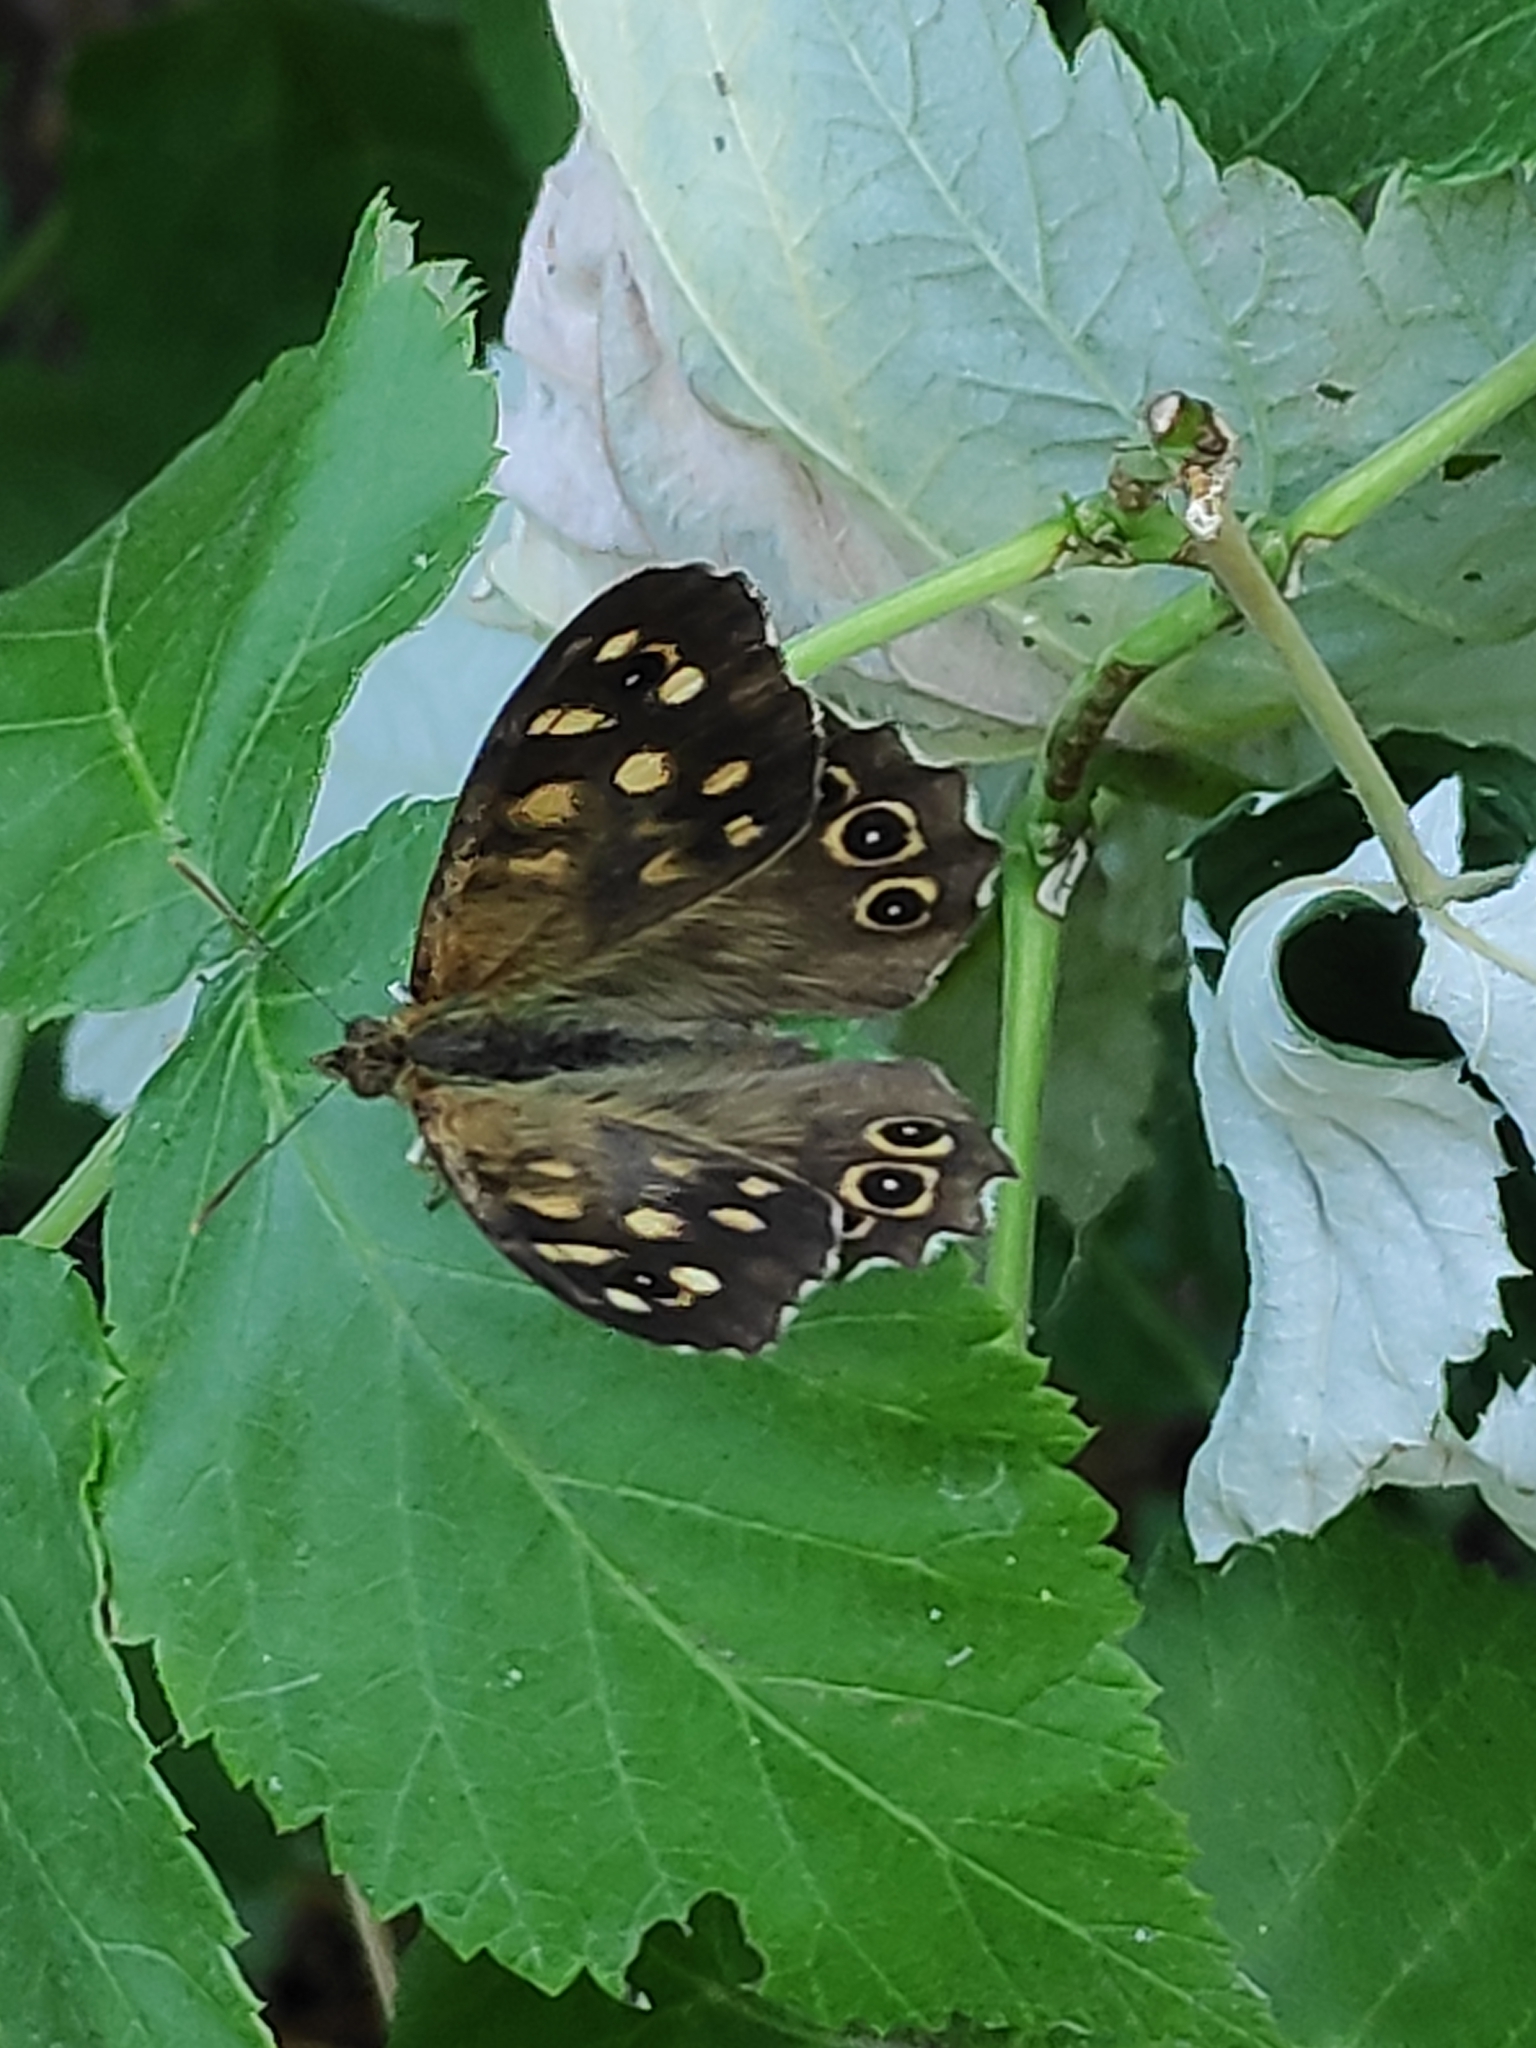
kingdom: Animalia
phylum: Arthropoda
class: Insecta
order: Lepidoptera
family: Nymphalidae
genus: Pararge
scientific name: Pararge aegeria
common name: Speckled wood
